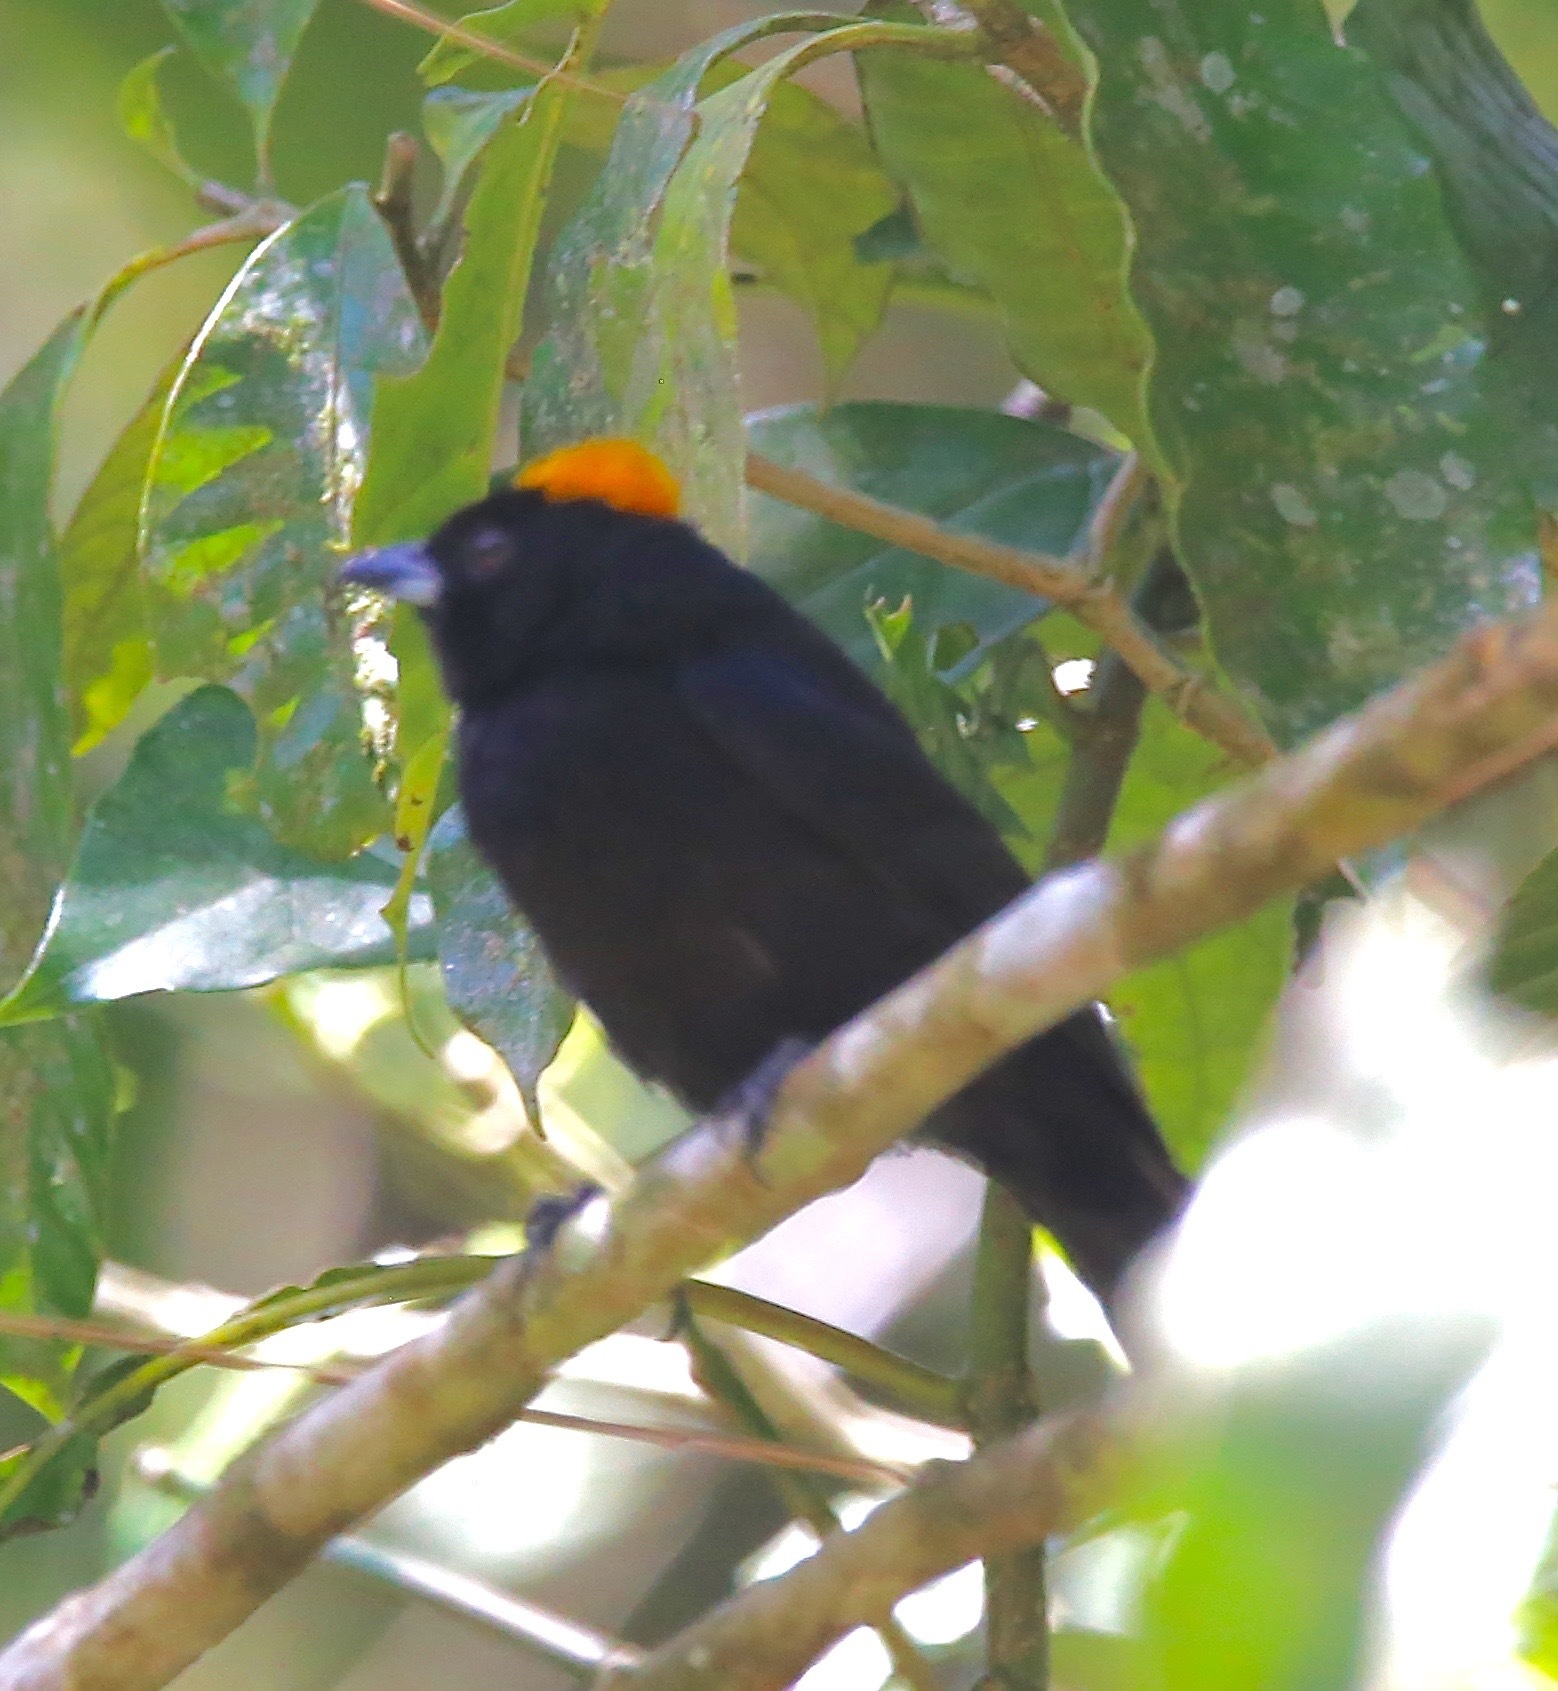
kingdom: Animalia
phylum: Chordata
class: Aves
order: Passeriformes
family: Thraupidae
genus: Tachyphonus
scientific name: Tachyphonus delatrii
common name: Tawny-crested tanager
